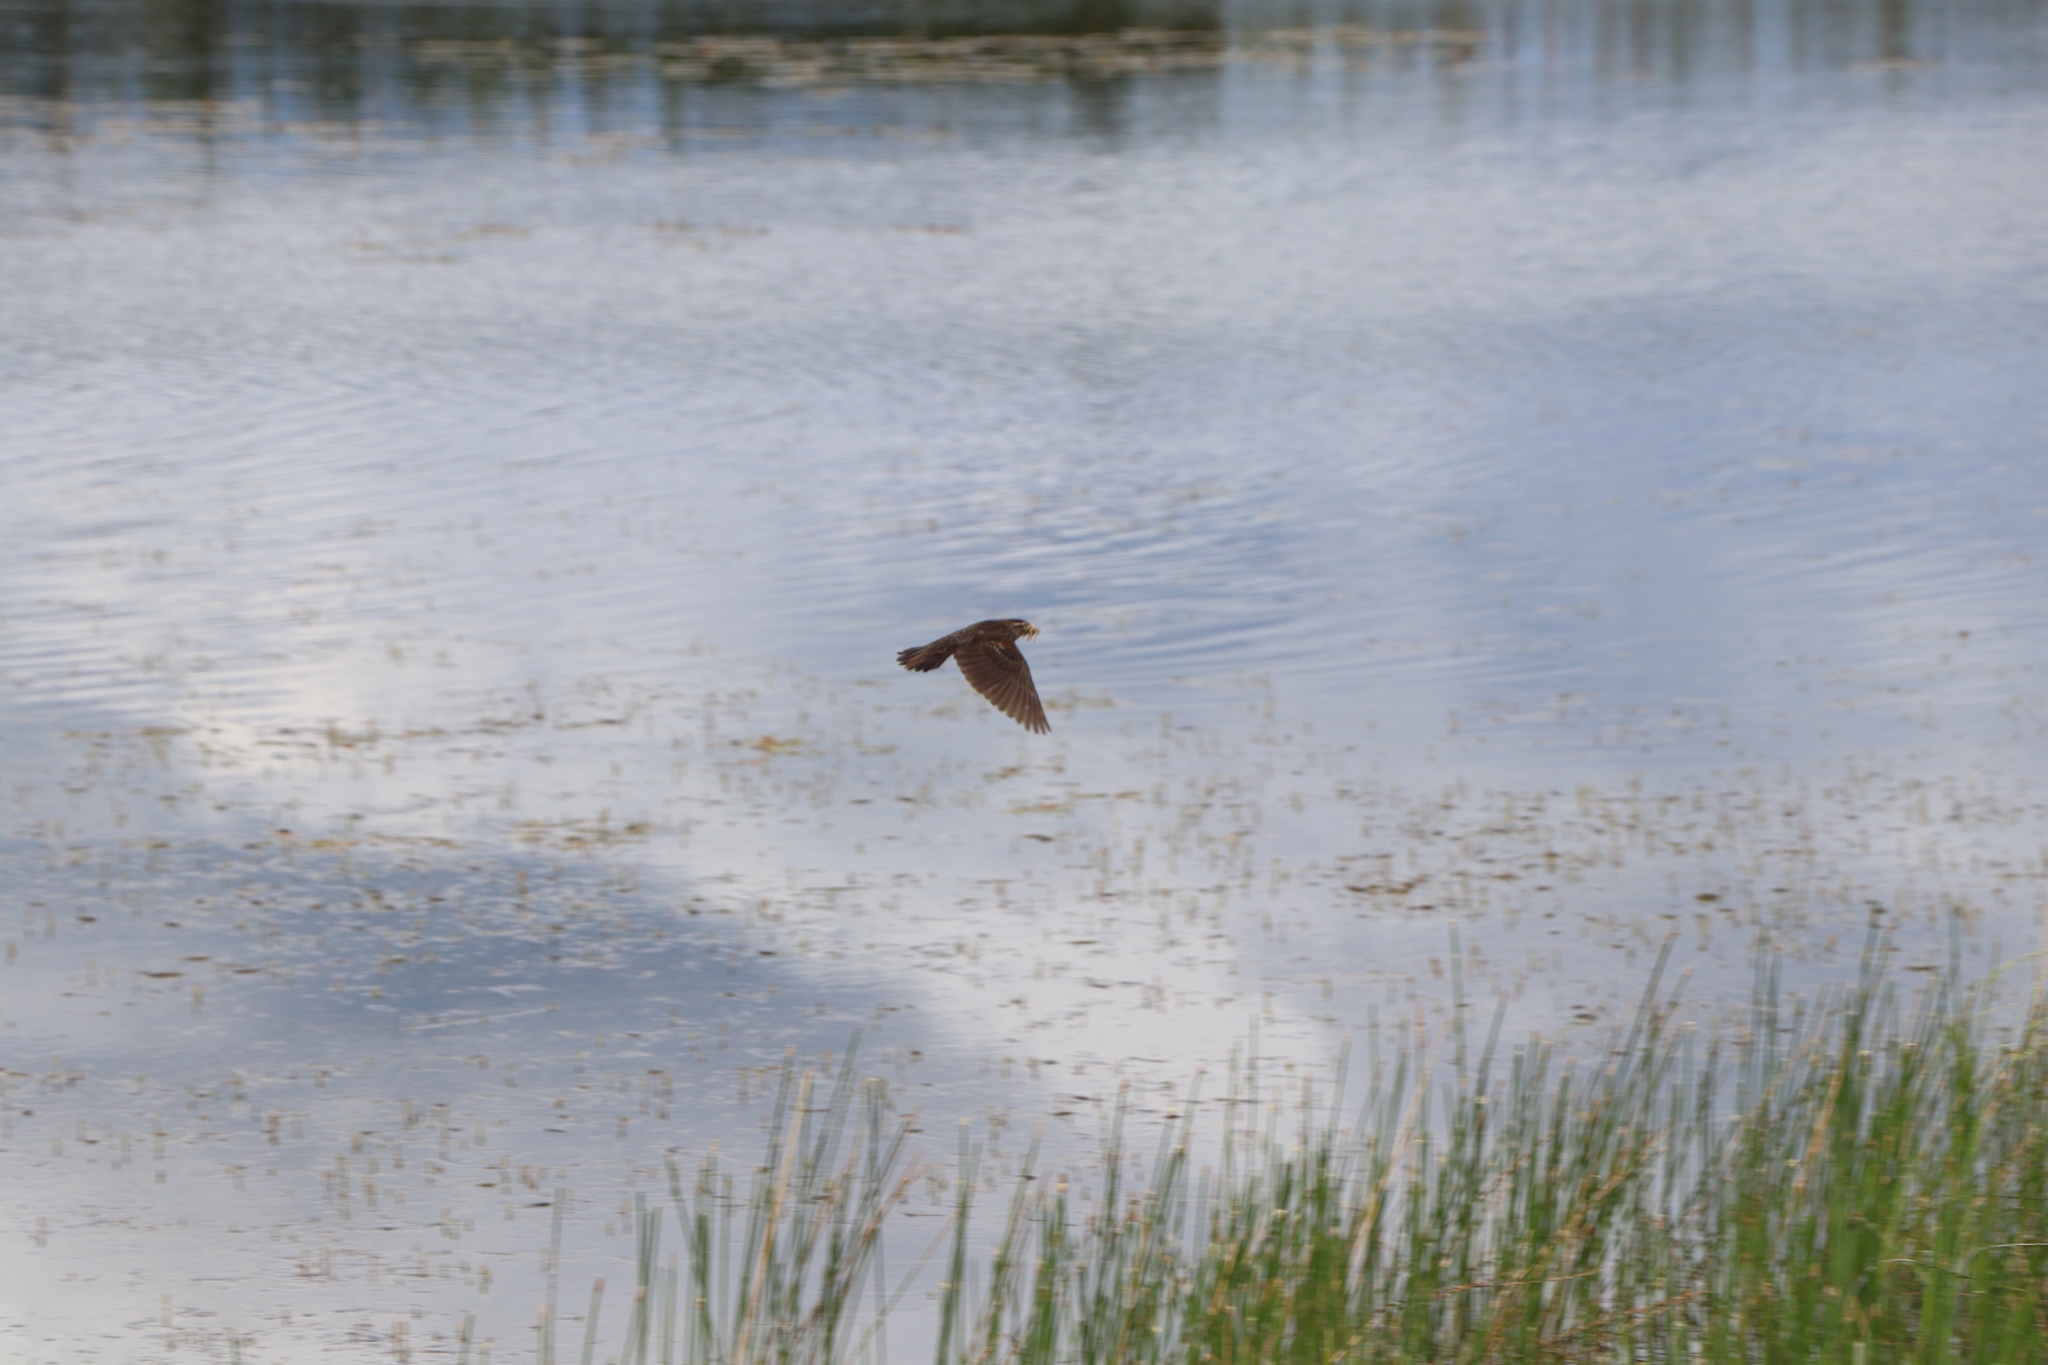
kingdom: Animalia
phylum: Chordata
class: Aves
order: Passeriformes
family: Icteridae
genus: Agelaius
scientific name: Agelaius phoeniceus
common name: Red-winged blackbird
